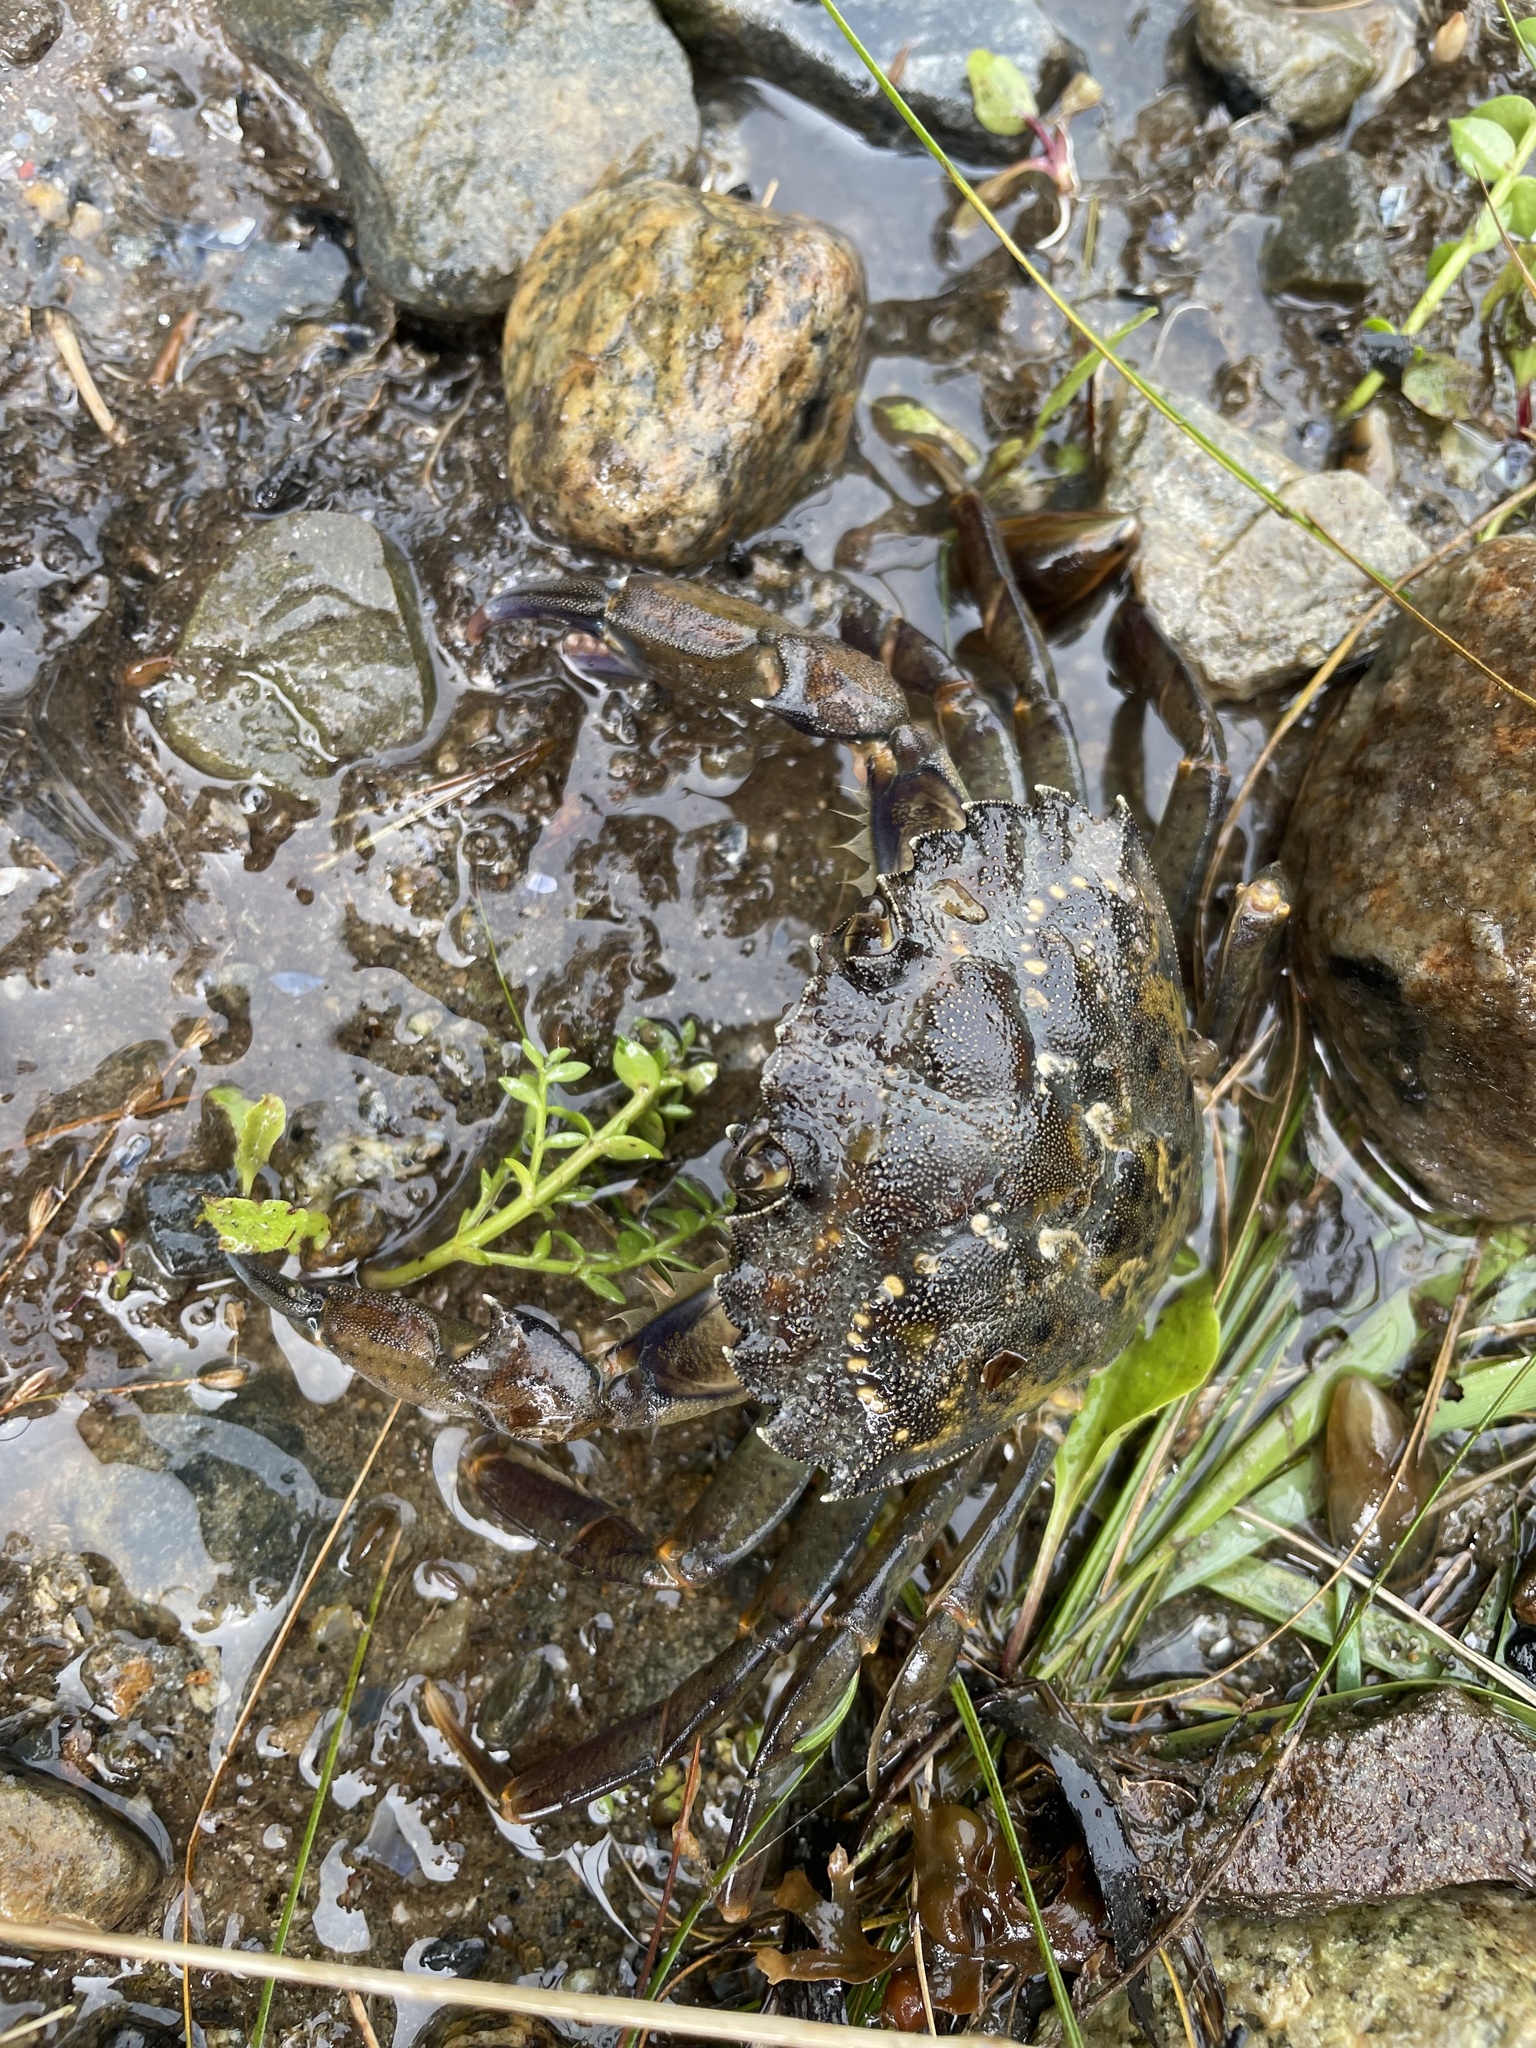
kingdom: Animalia
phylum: Arthropoda
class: Malacostraca
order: Decapoda
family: Carcinidae
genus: Carcinus
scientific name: Carcinus maenas
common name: European green crab
